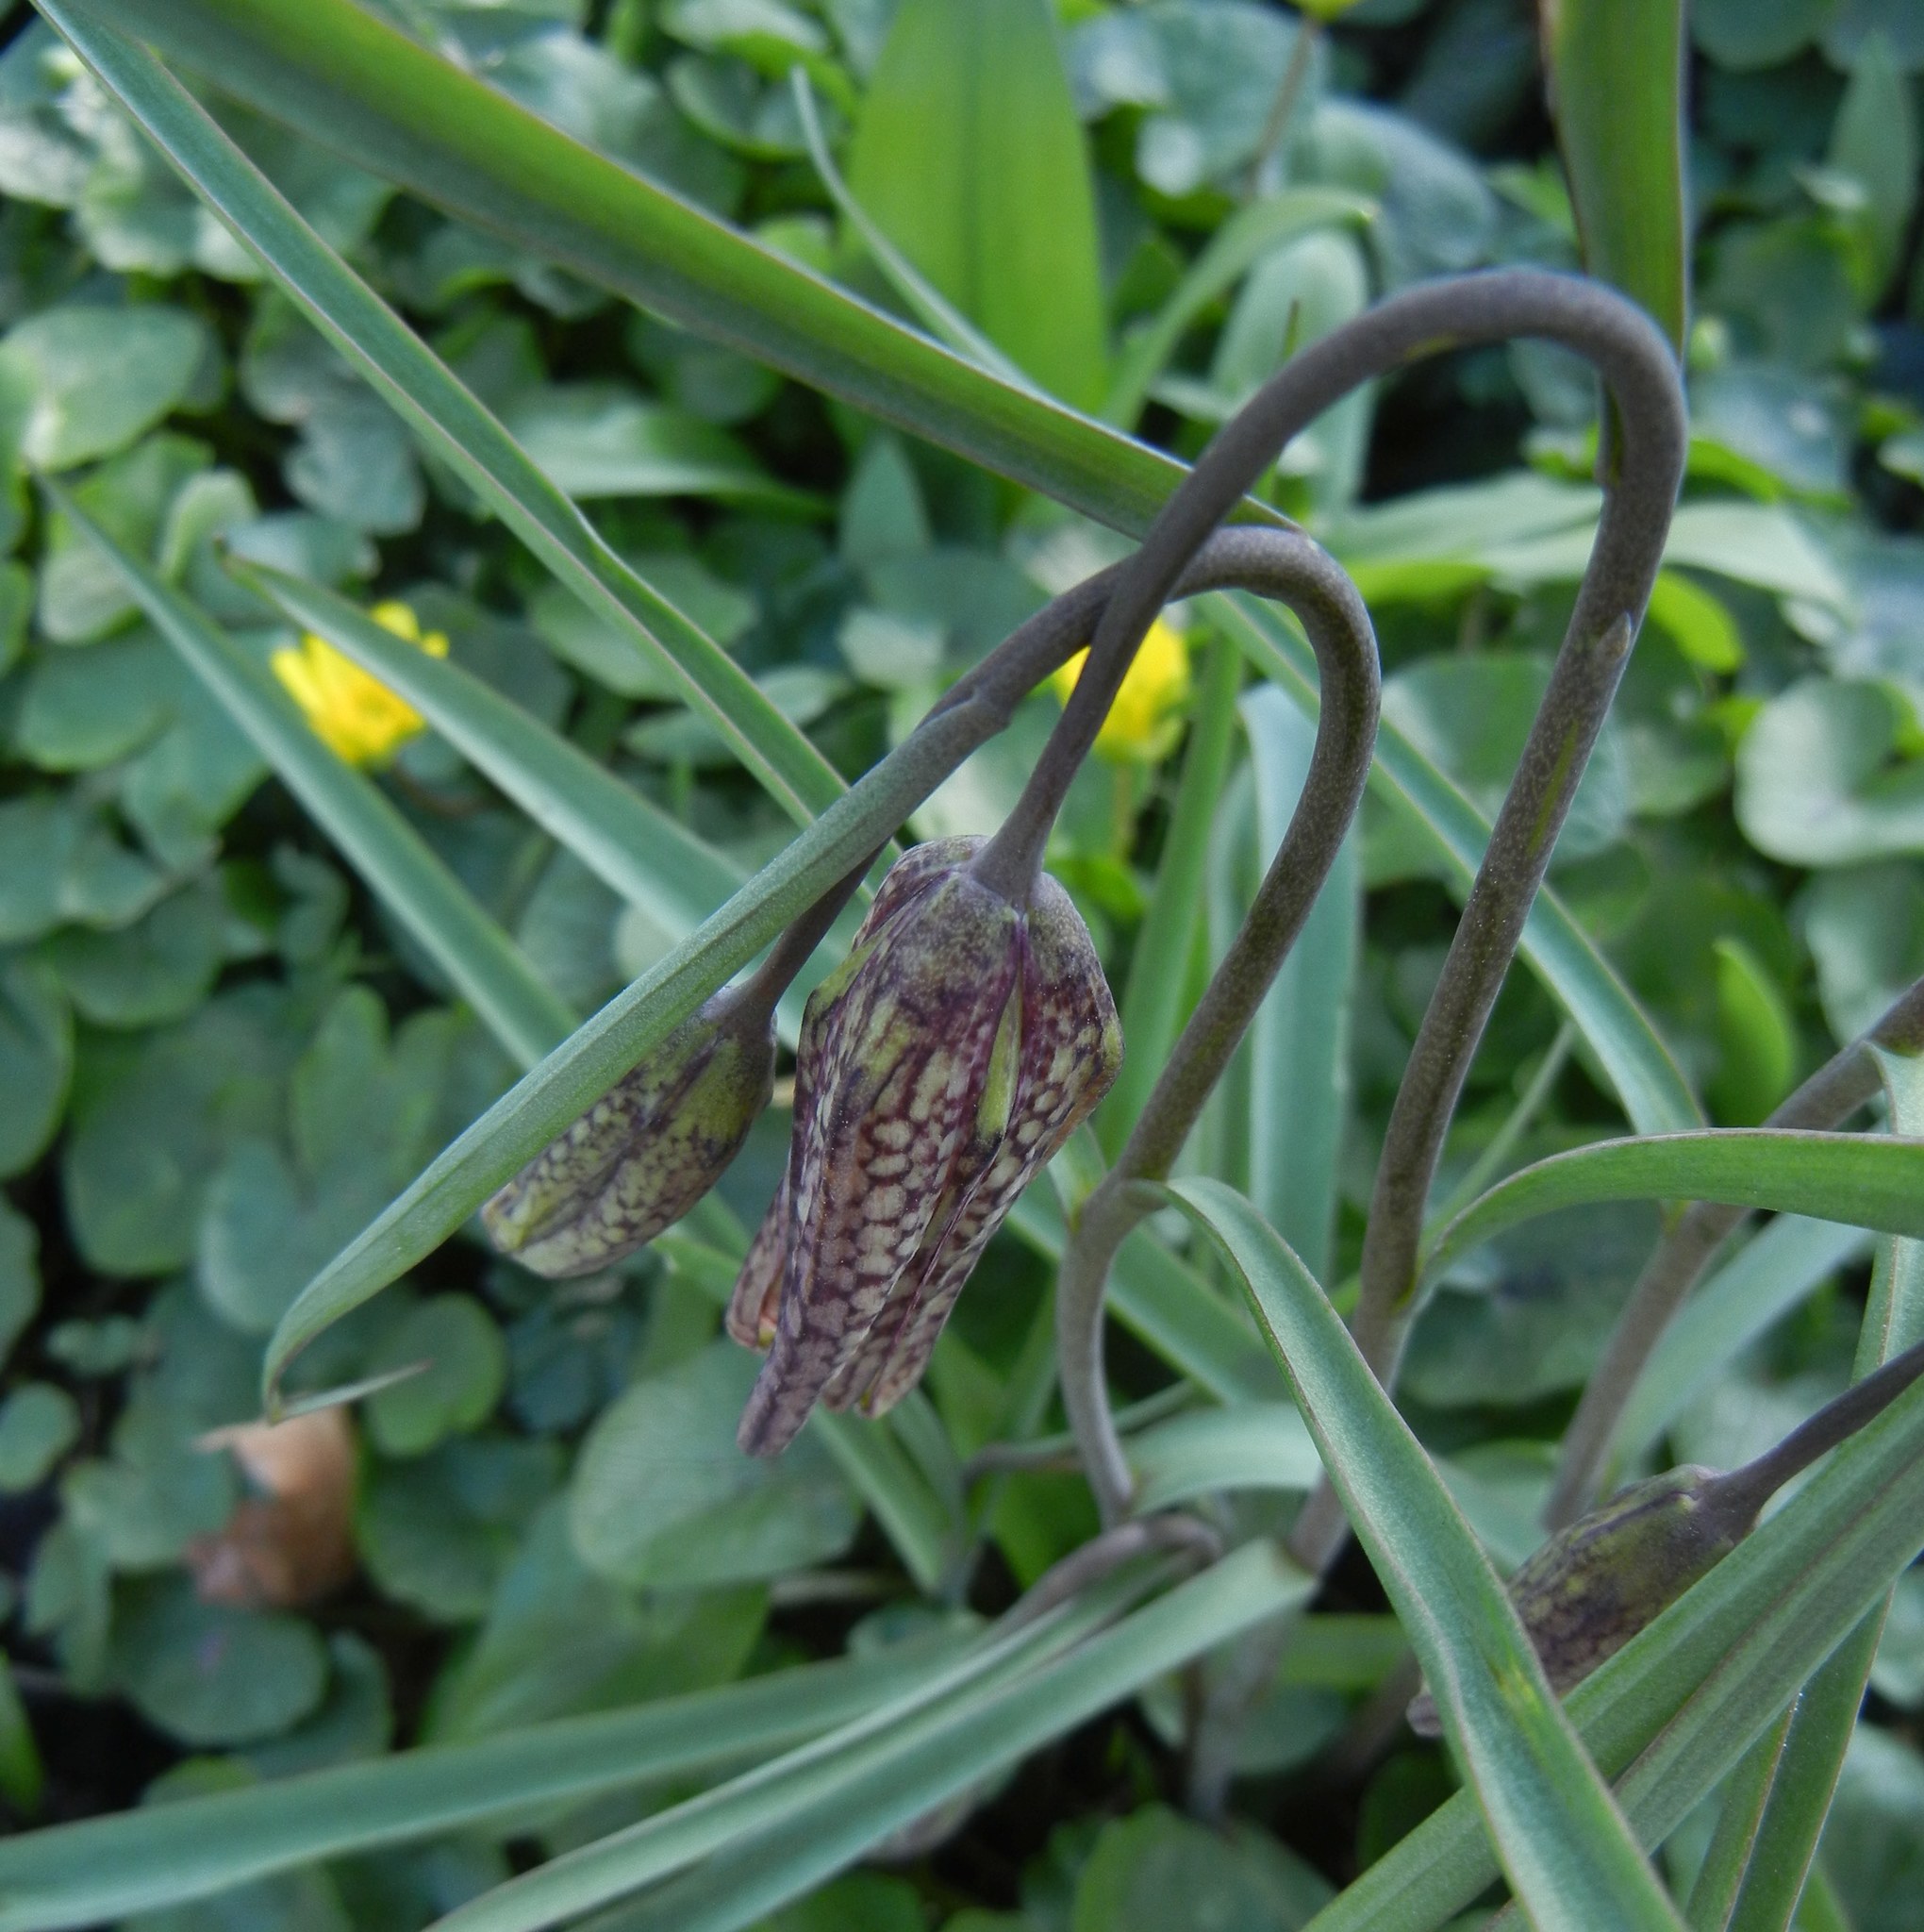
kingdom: Plantae
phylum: Tracheophyta
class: Liliopsida
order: Liliales
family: Liliaceae
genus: Fritillaria
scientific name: Fritillaria meleagris
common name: Fritillary
